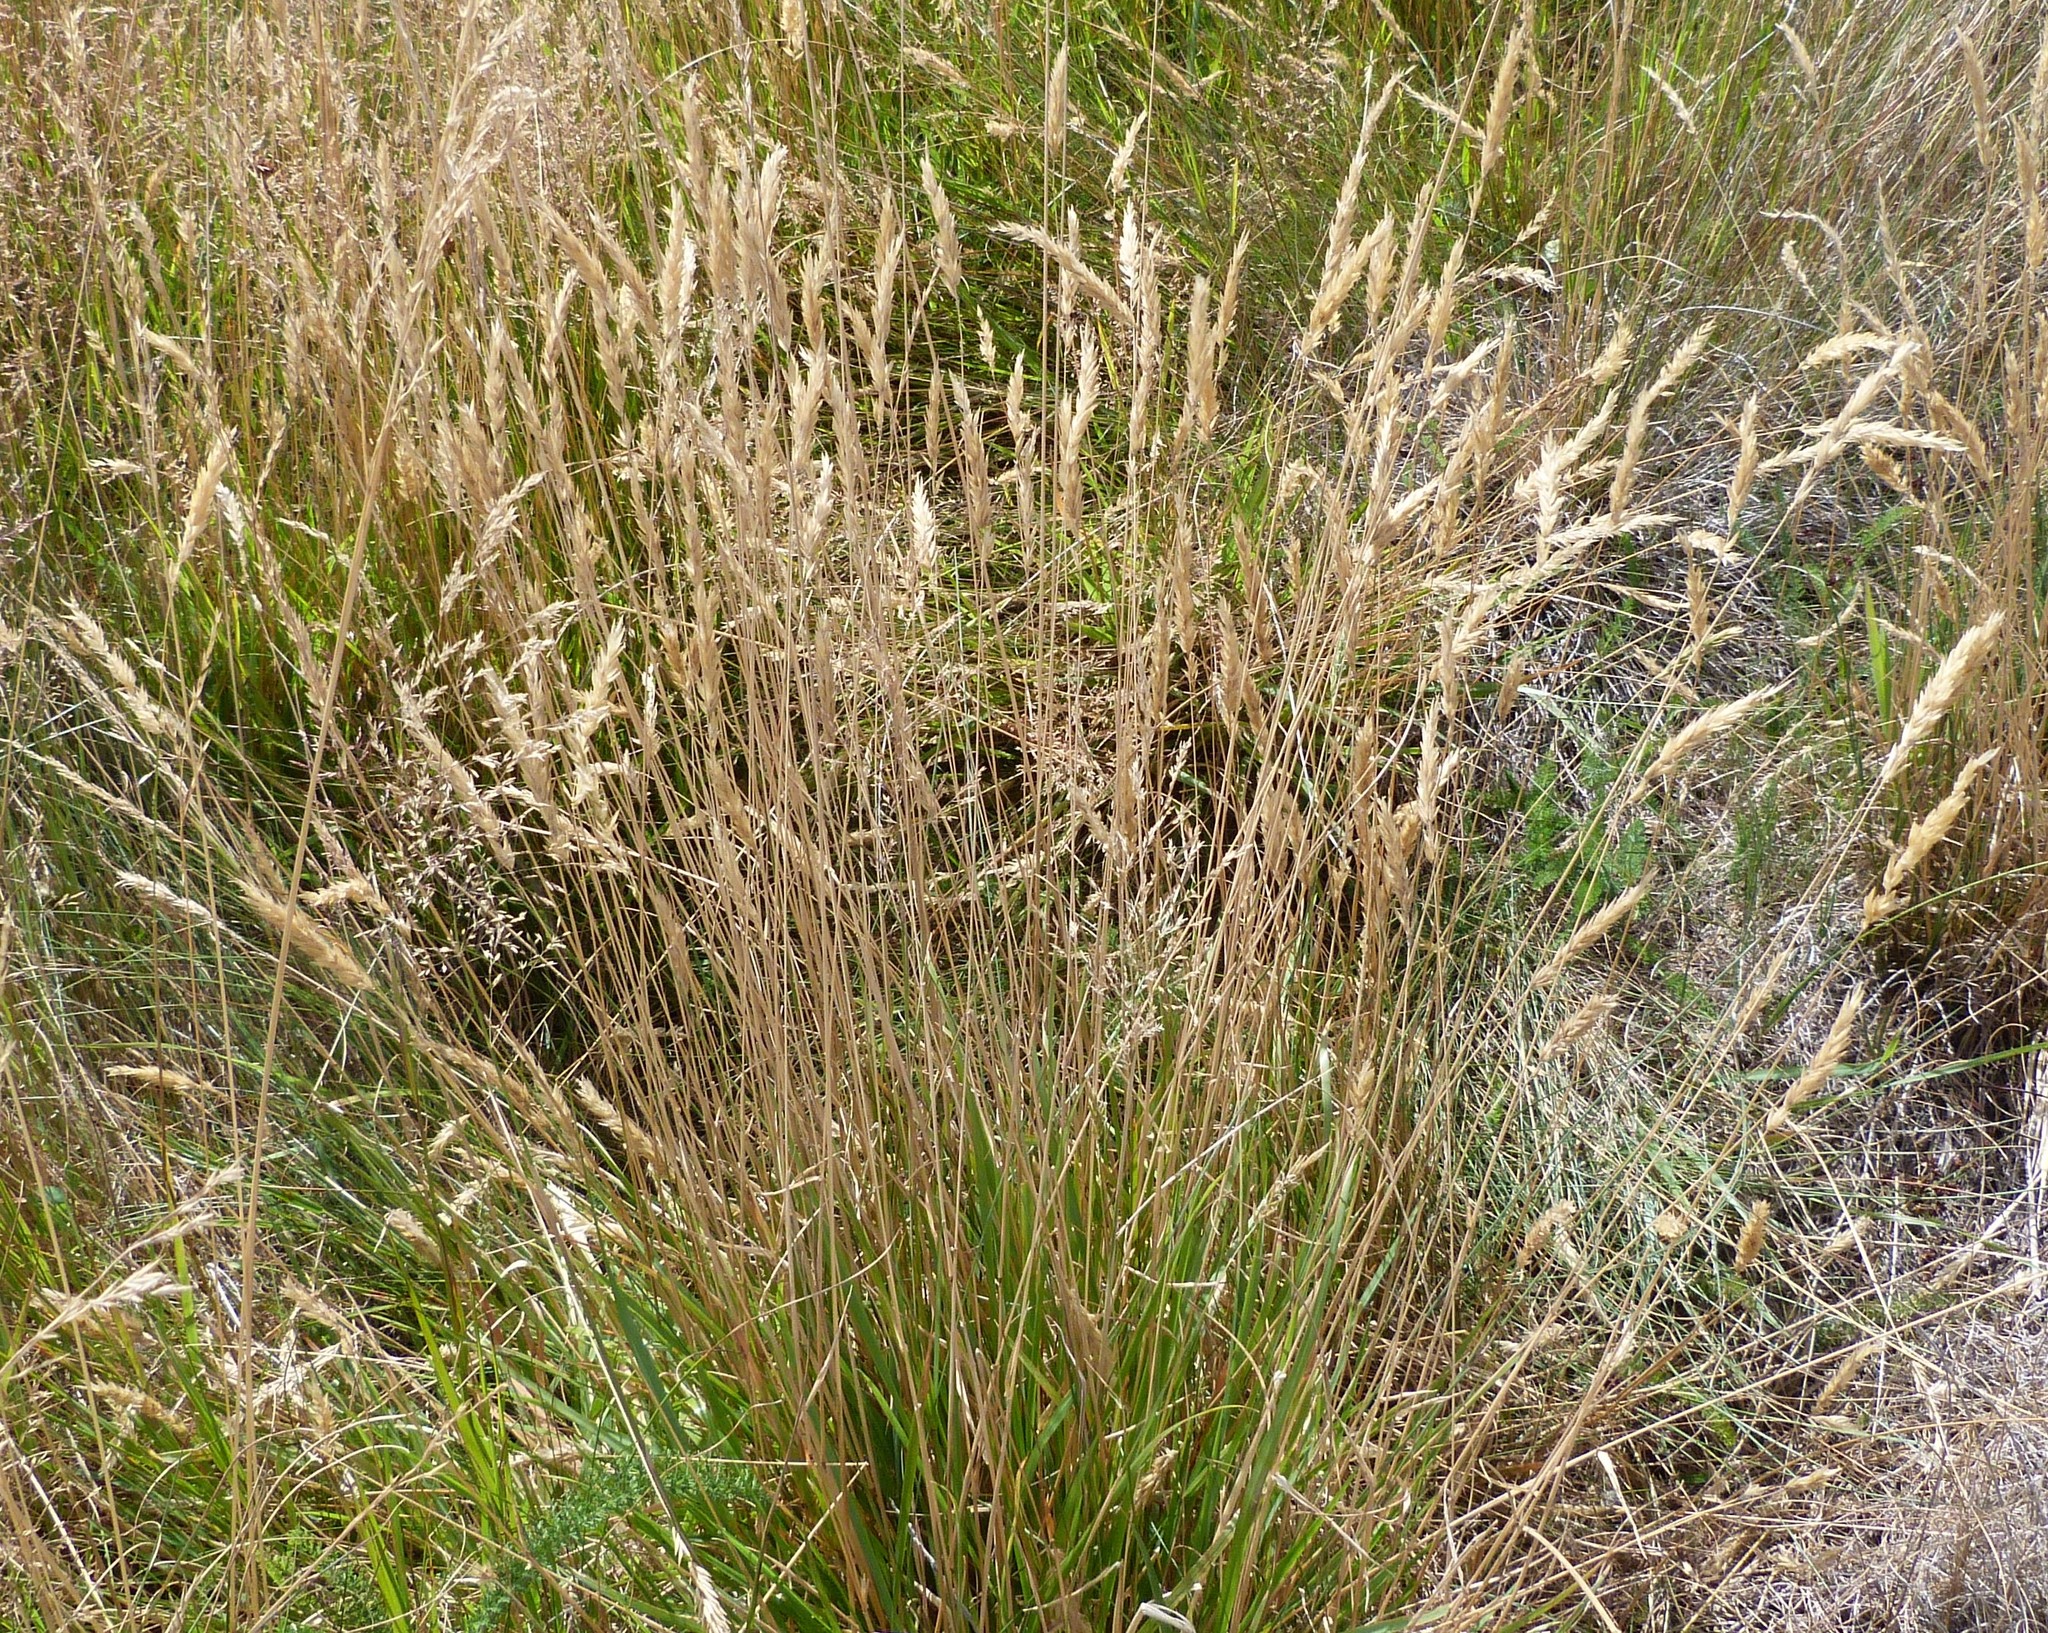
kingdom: Plantae
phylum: Tracheophyta
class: Liliopsida
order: Poales
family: Poaceae
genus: Anthoxanthum
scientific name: Anthoxanthum odoratum
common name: Sweet vernalgrass
